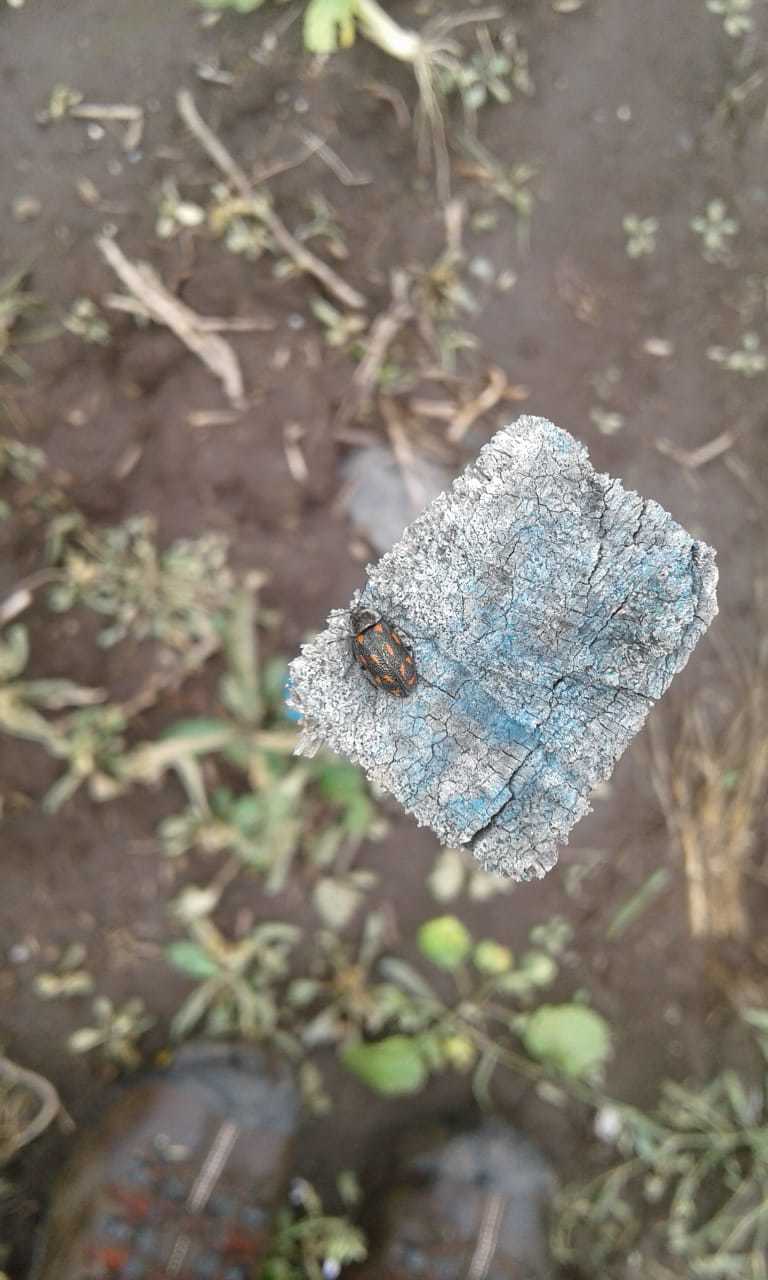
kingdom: Animalia
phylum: Arthropoda
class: Insecta
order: Coleoptera
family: Melyridae
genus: Astylus
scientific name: Astylus
